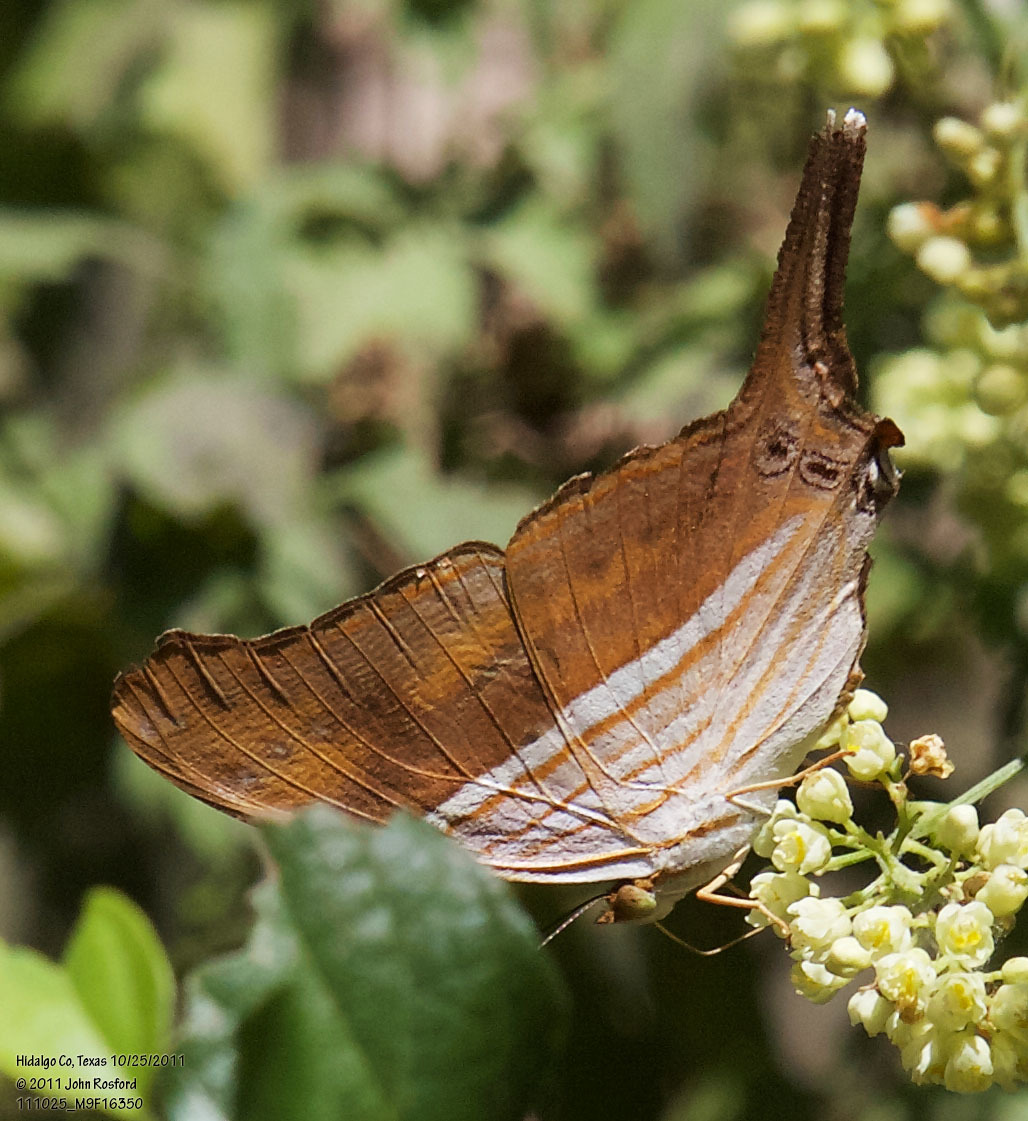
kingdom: Animalia
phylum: Arthropoda
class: Insecta
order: Lepidoptera
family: Nymphalidae
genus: Marpesia
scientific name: Marpesia chiron
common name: Many-banded daggerwing
